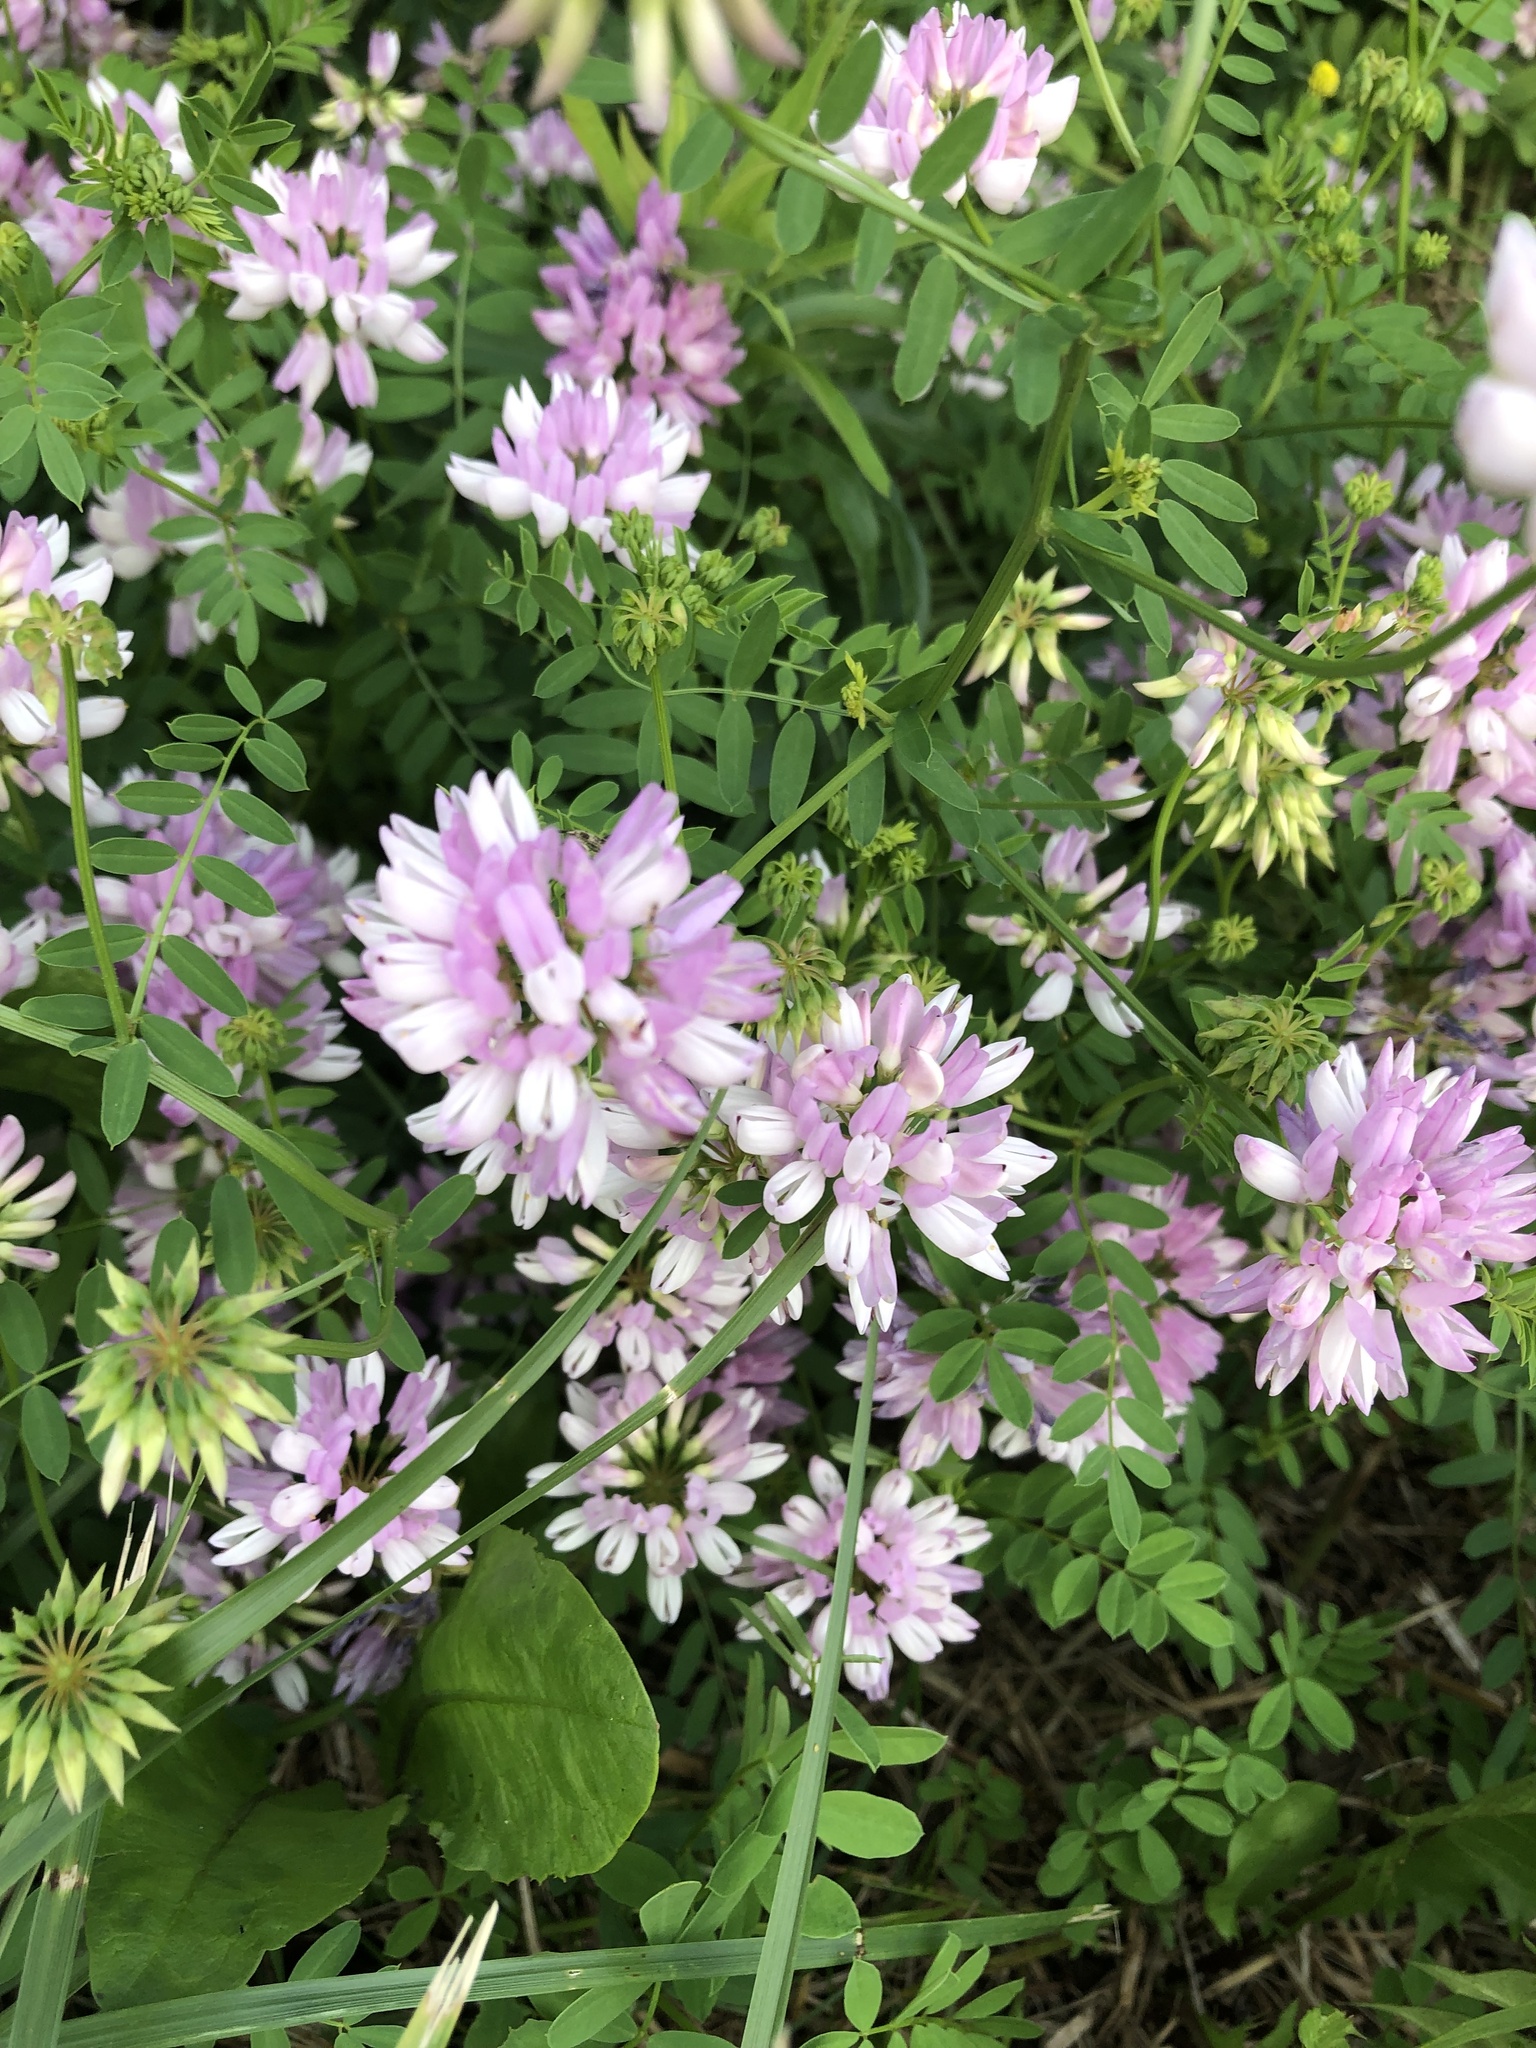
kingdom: Plantae
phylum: Tracheophyta
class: Magnoliopsida
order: Fabales
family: Fabaceae
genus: Coronilla
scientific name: Coronilla varia
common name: Crownvetch
